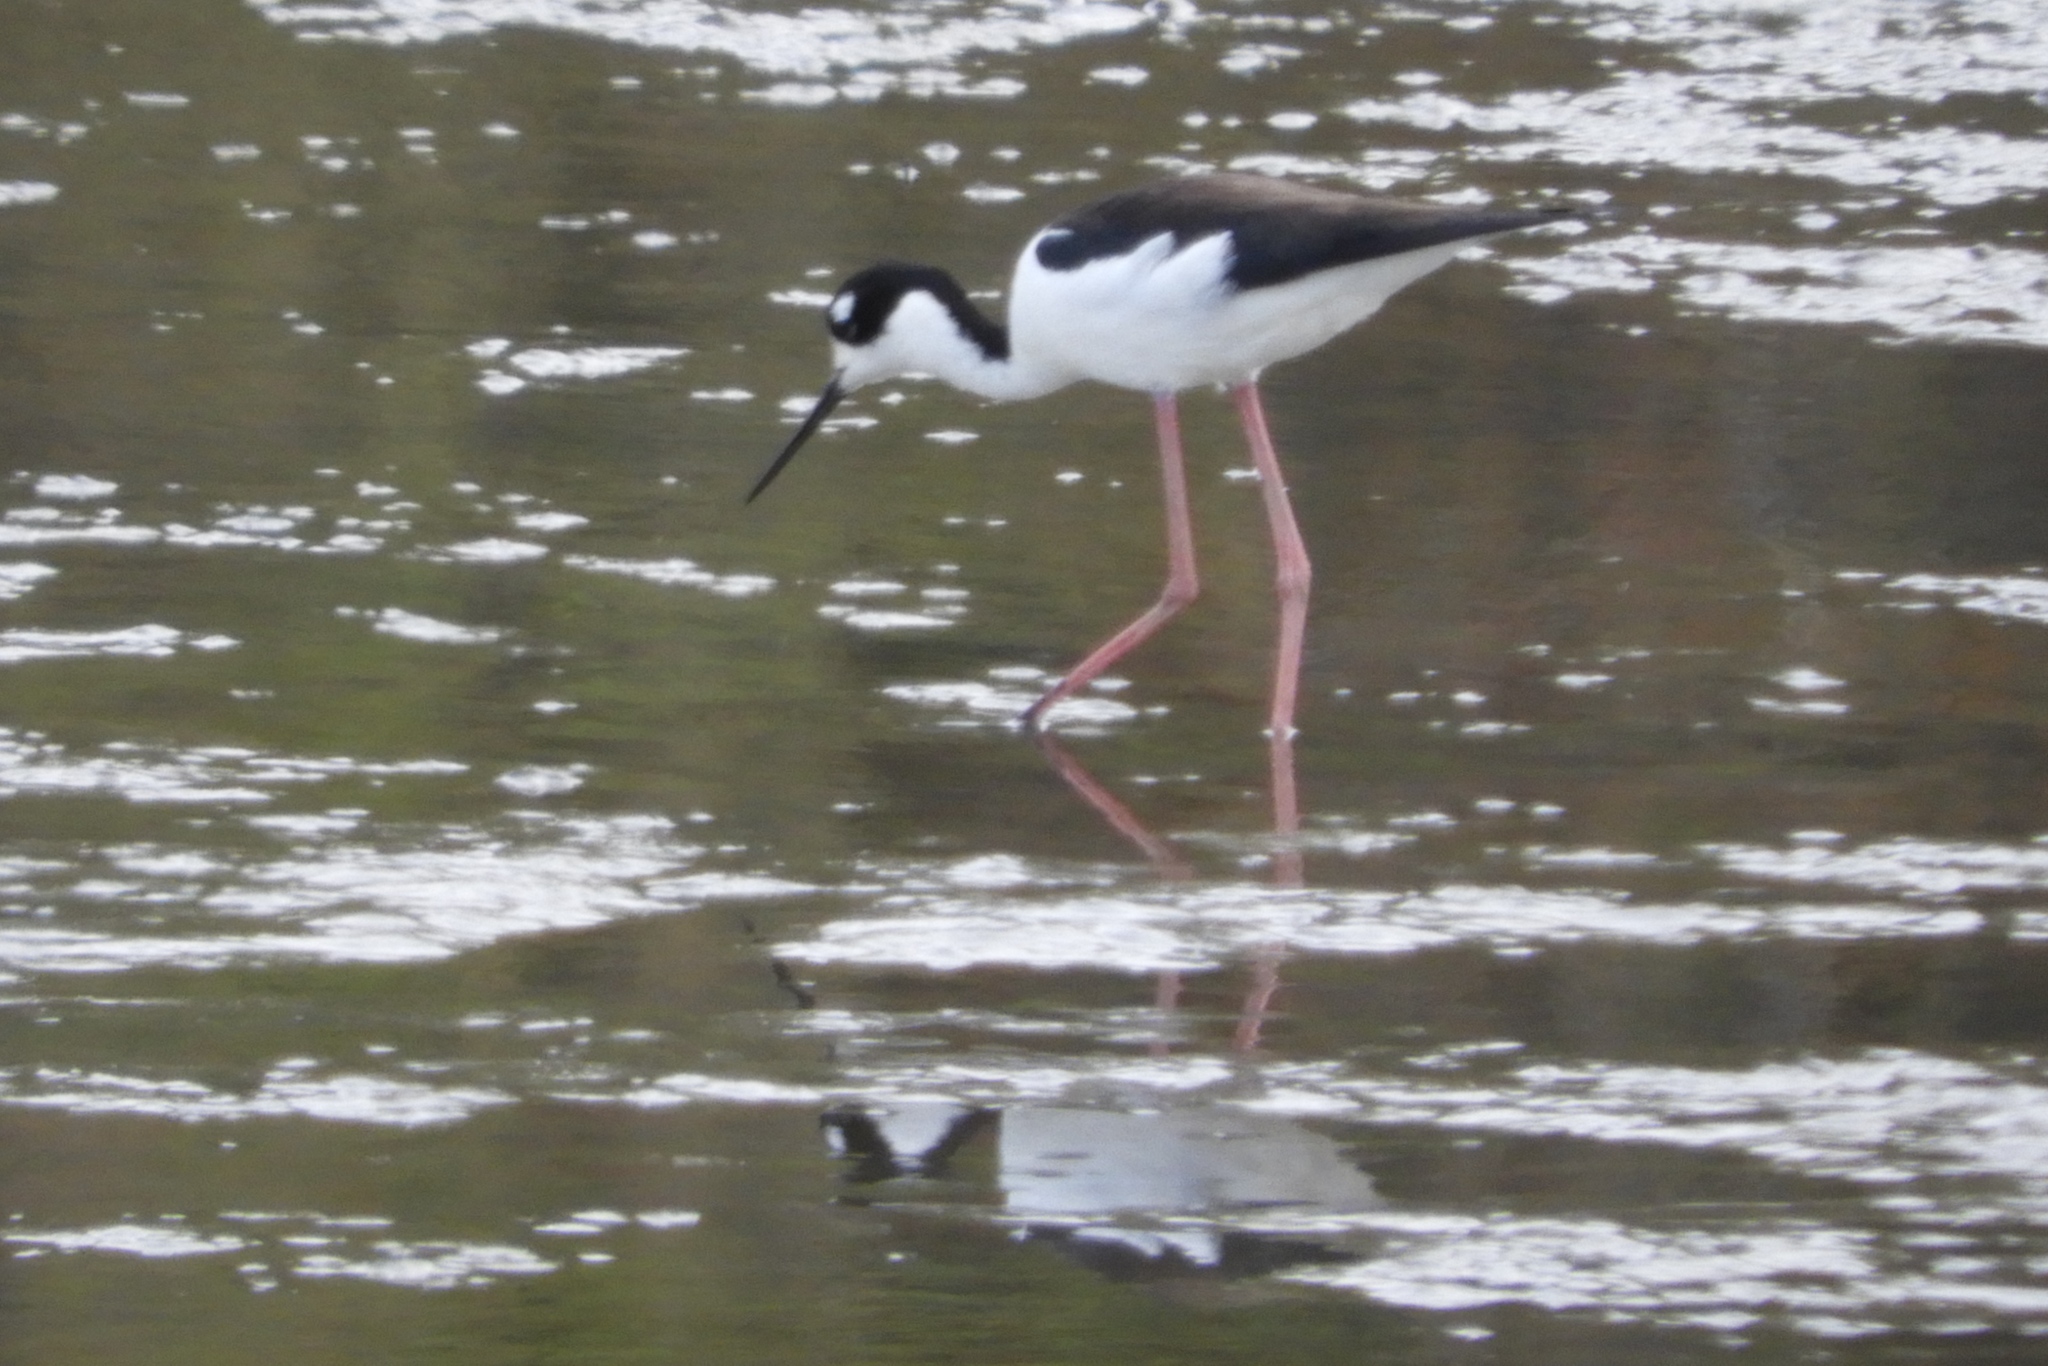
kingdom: Animalia
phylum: Chordata
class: Aves
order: Charadriiformes
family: Recurvirostridae
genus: Himantopus
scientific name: Himantopus mexicanus
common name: Black-necked stilt
